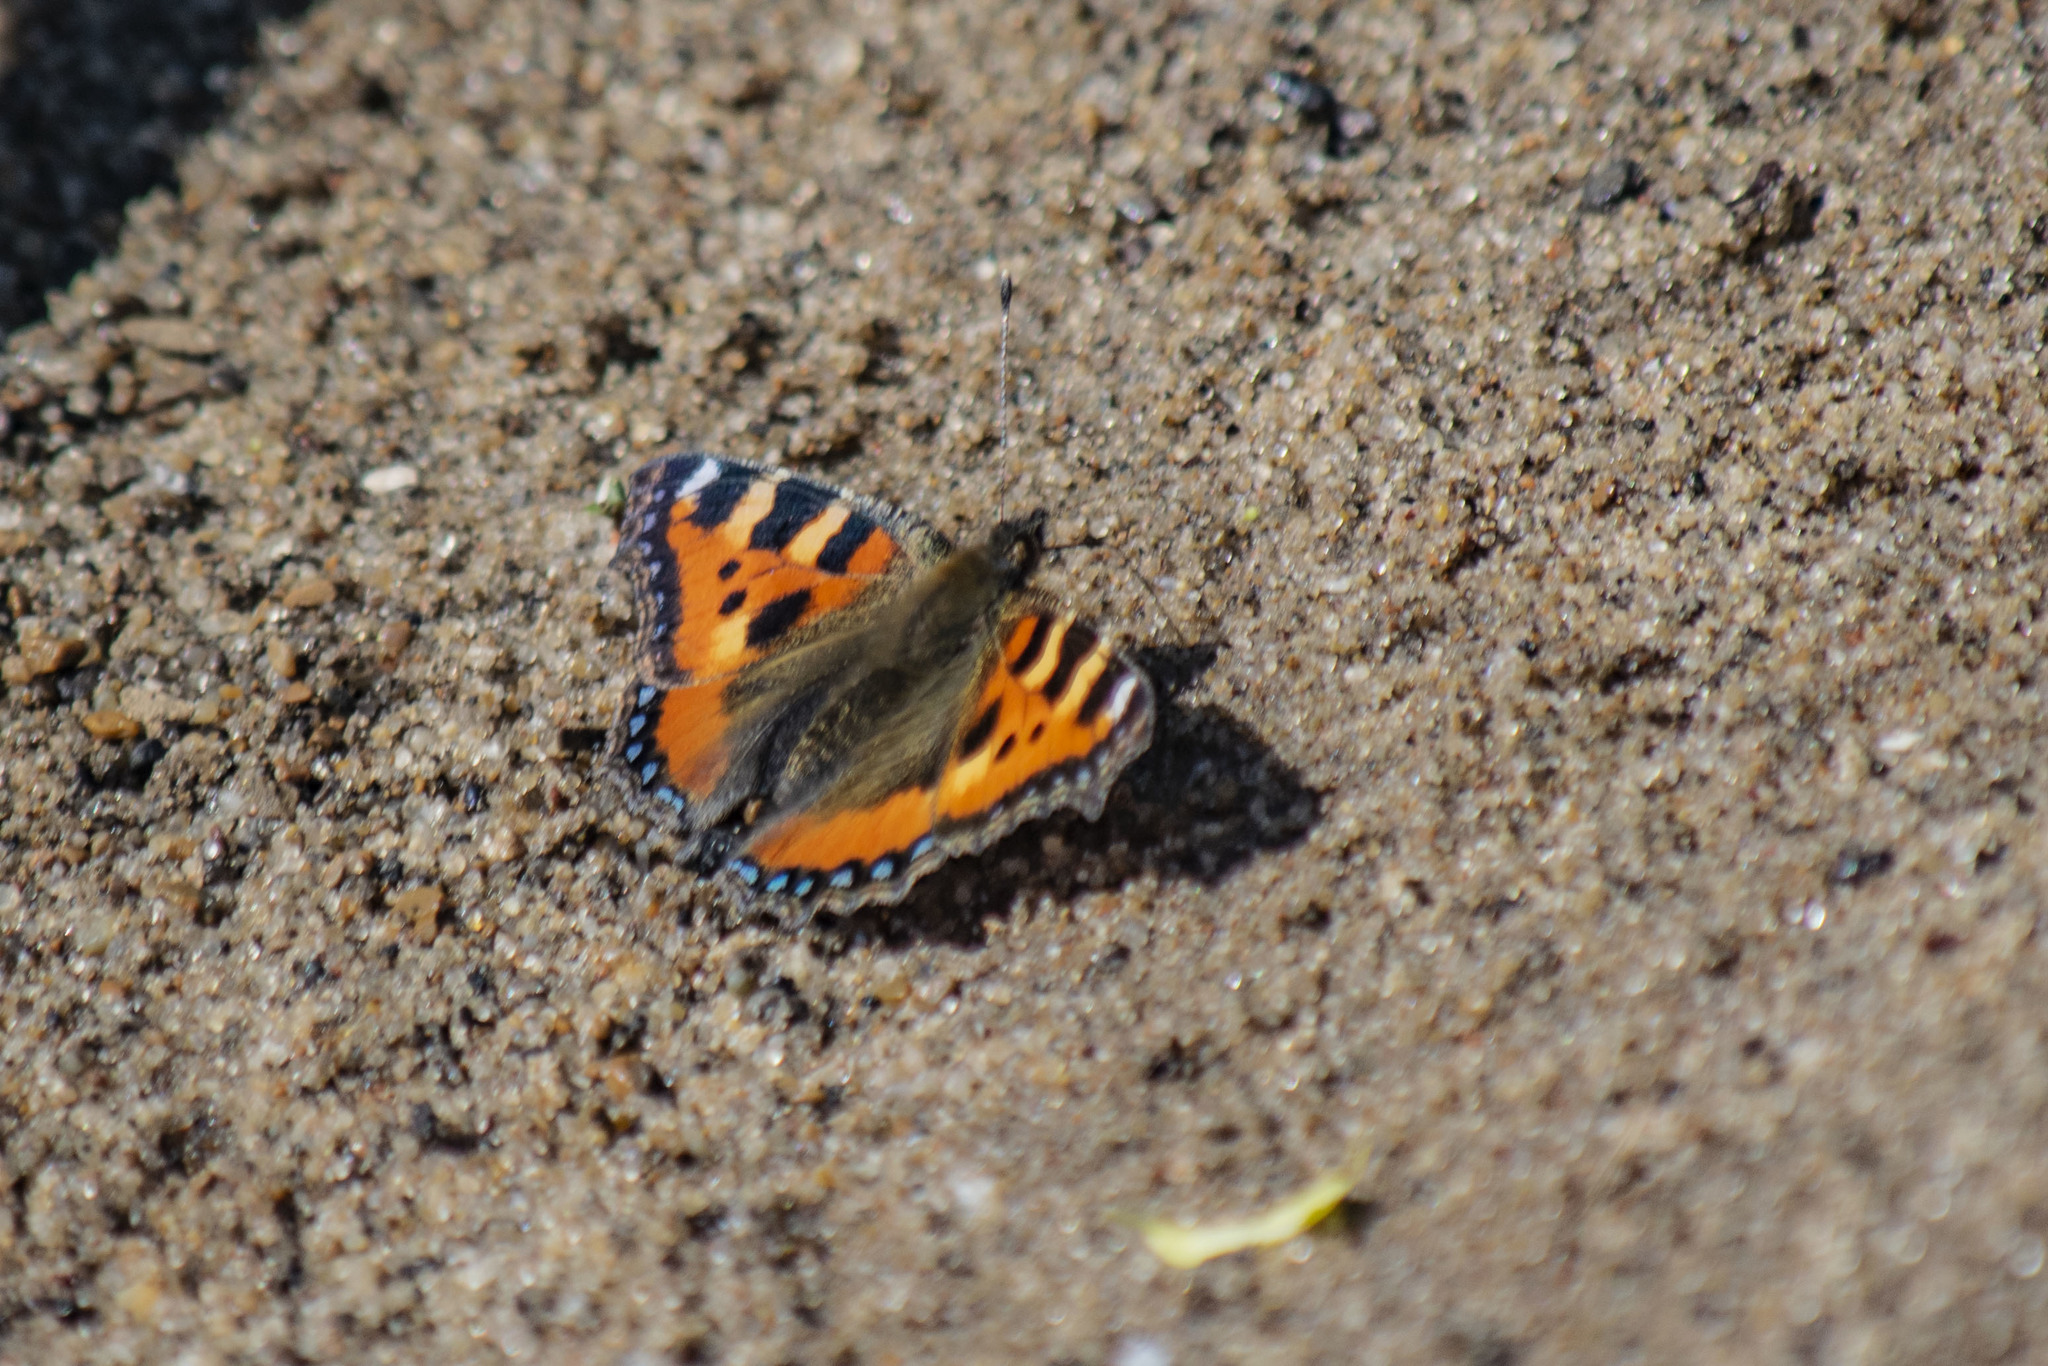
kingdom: Animalia
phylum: Arthropoda
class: Insecta
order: Lepidoptera
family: Nymphalidae
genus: Aglais
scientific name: Aglais urticae
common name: Small tortoiseshell
